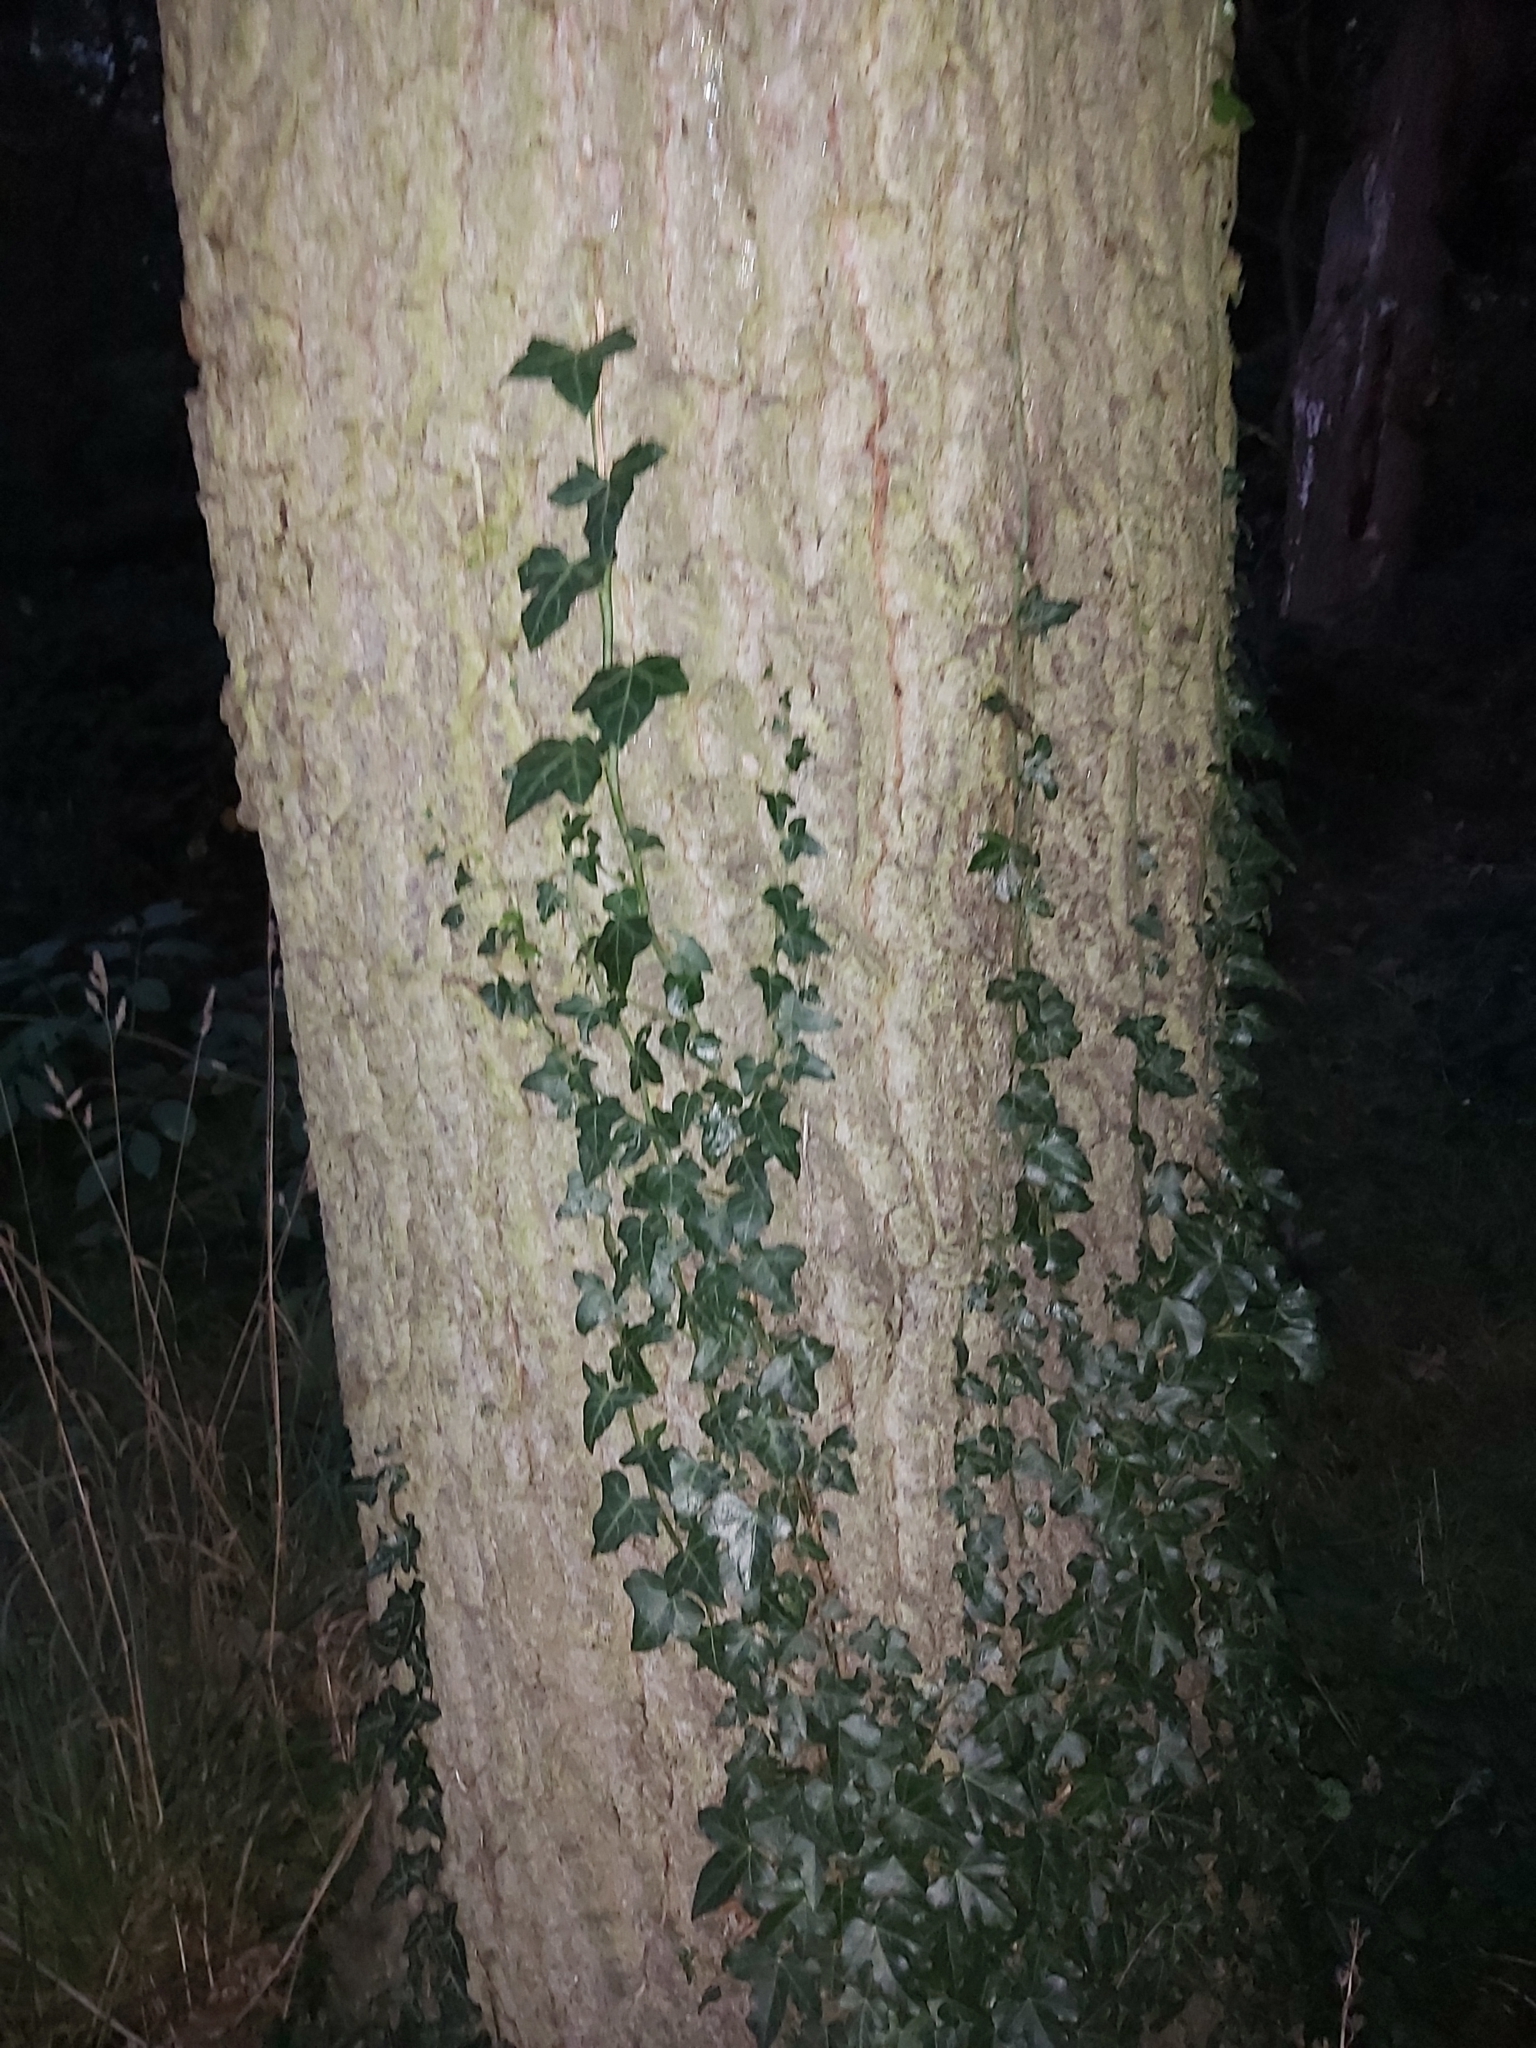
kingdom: Plantae
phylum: Tracheophyta
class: Magnoliopsida
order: Apiales
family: Araliaceae
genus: Hedera
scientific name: Hedera helix
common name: Ivy
